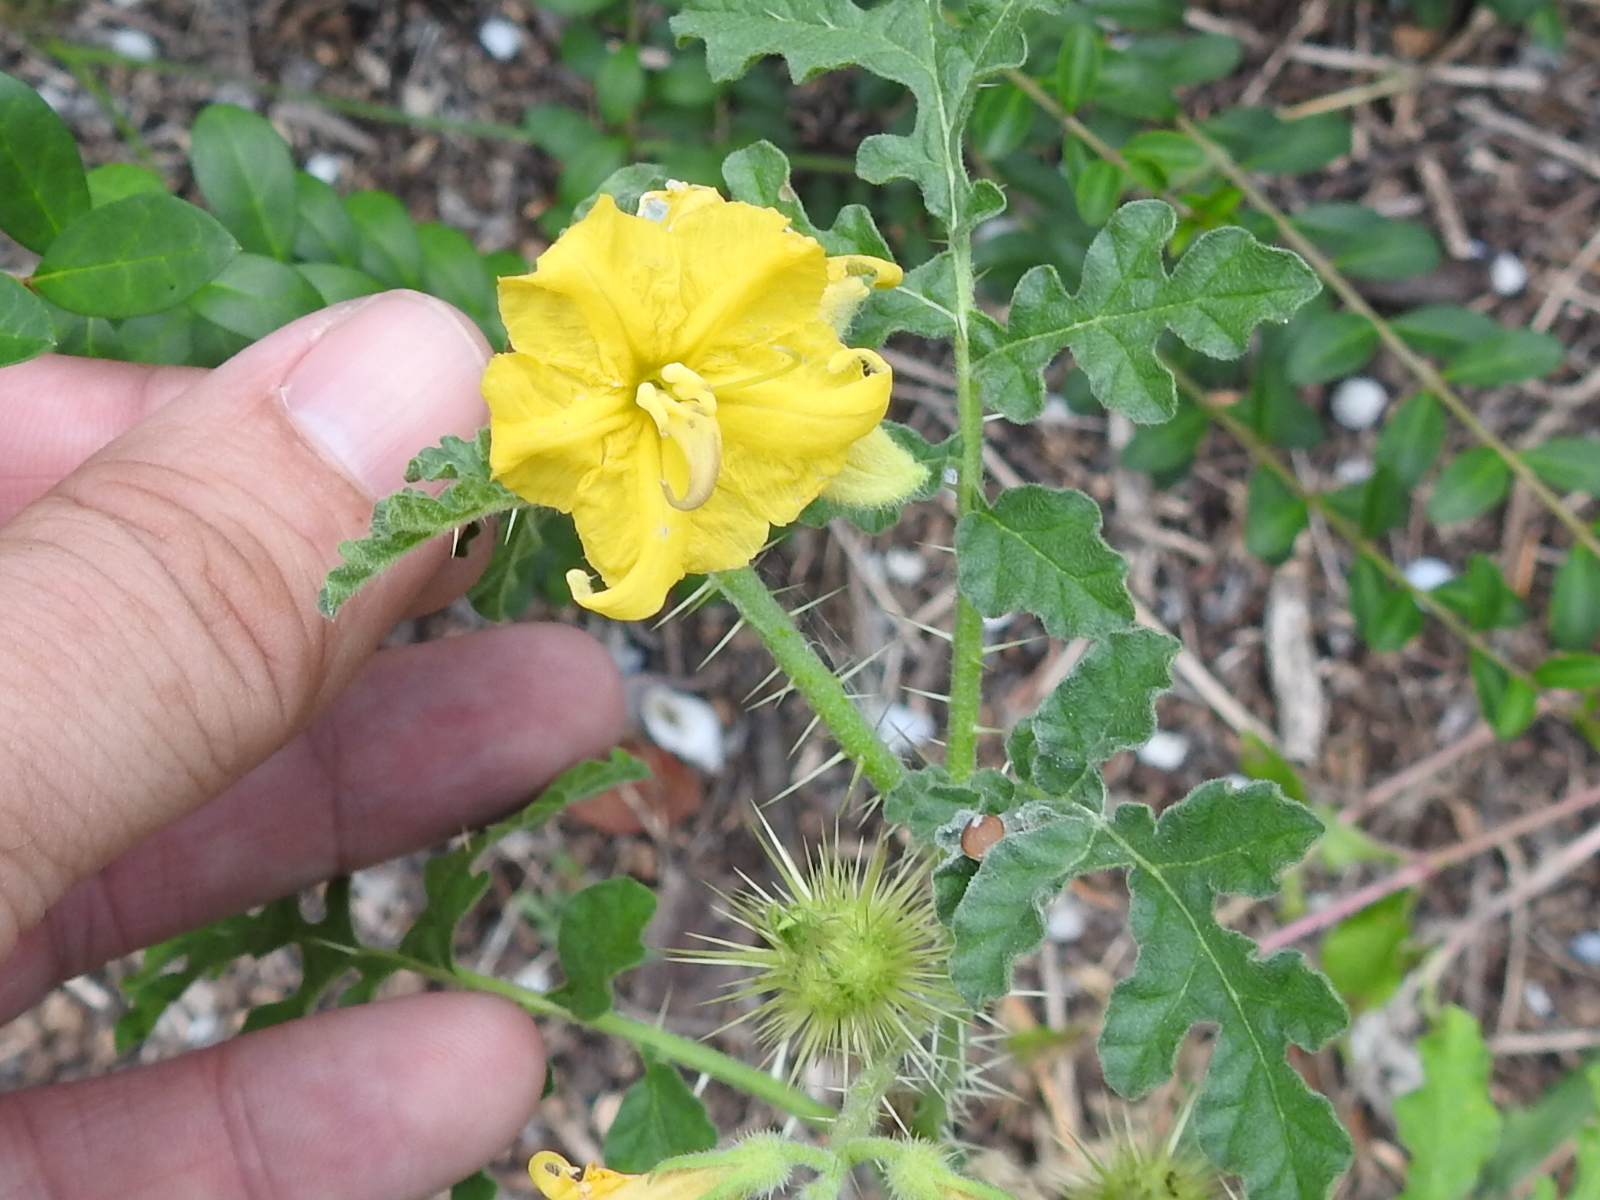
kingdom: Plantae
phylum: Tracheophyta
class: Magnoliopsida
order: Solanales
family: Solanaceae
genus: Solanum
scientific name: Solanum angustifolium
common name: Buffalobur nightshade
